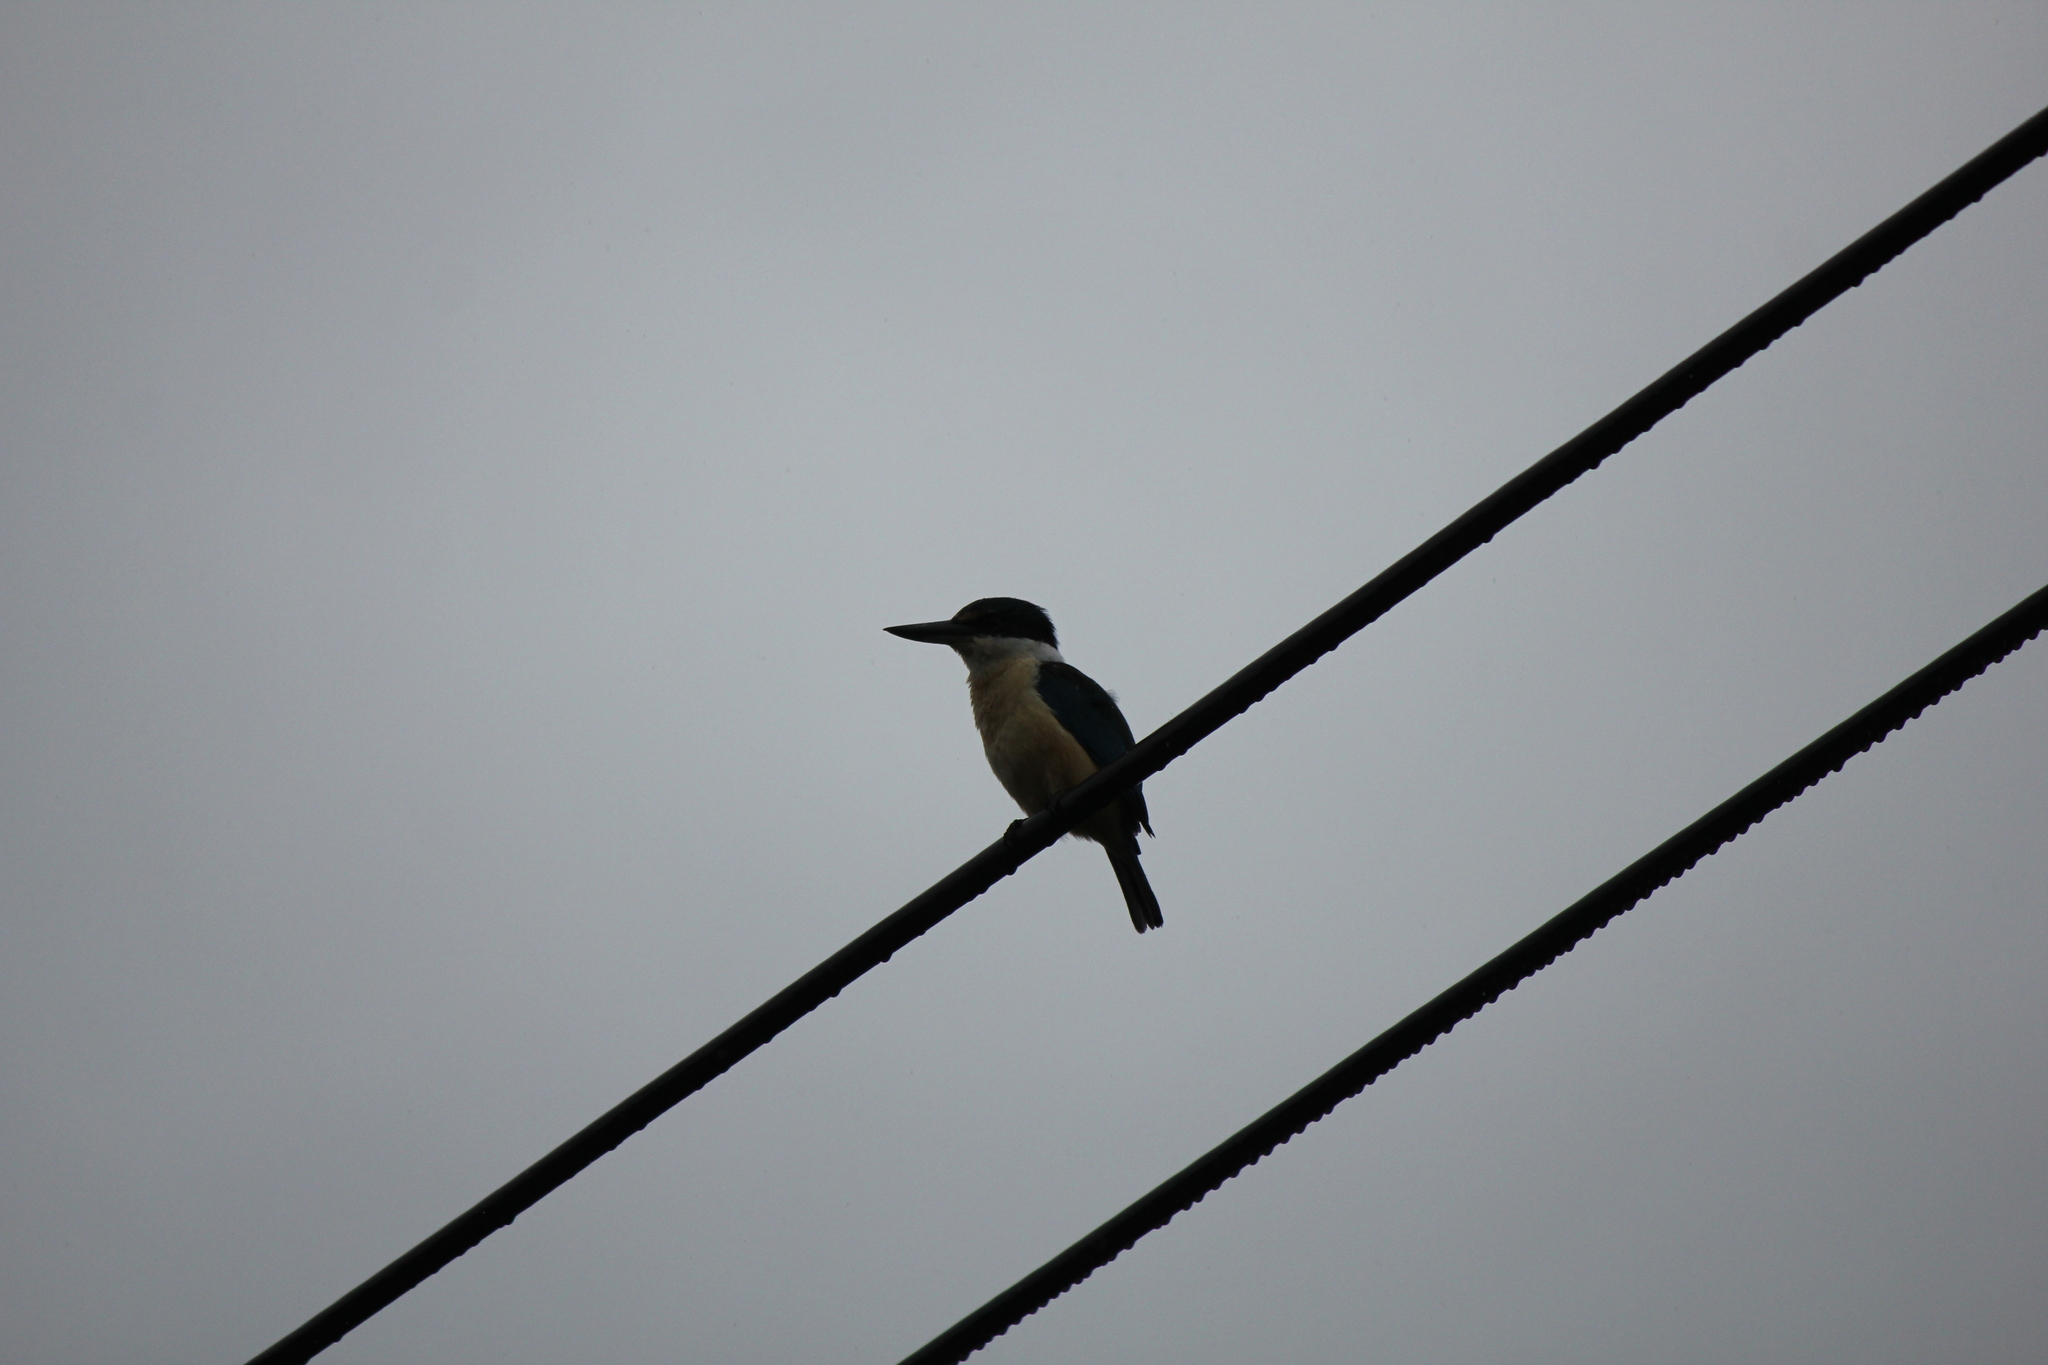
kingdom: Animalia
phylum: Chordata
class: Aves
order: Coraciiformes
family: Alcedinidae
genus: Todiramphus
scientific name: Todiramphus sanctus
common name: Sacred kingfisher
